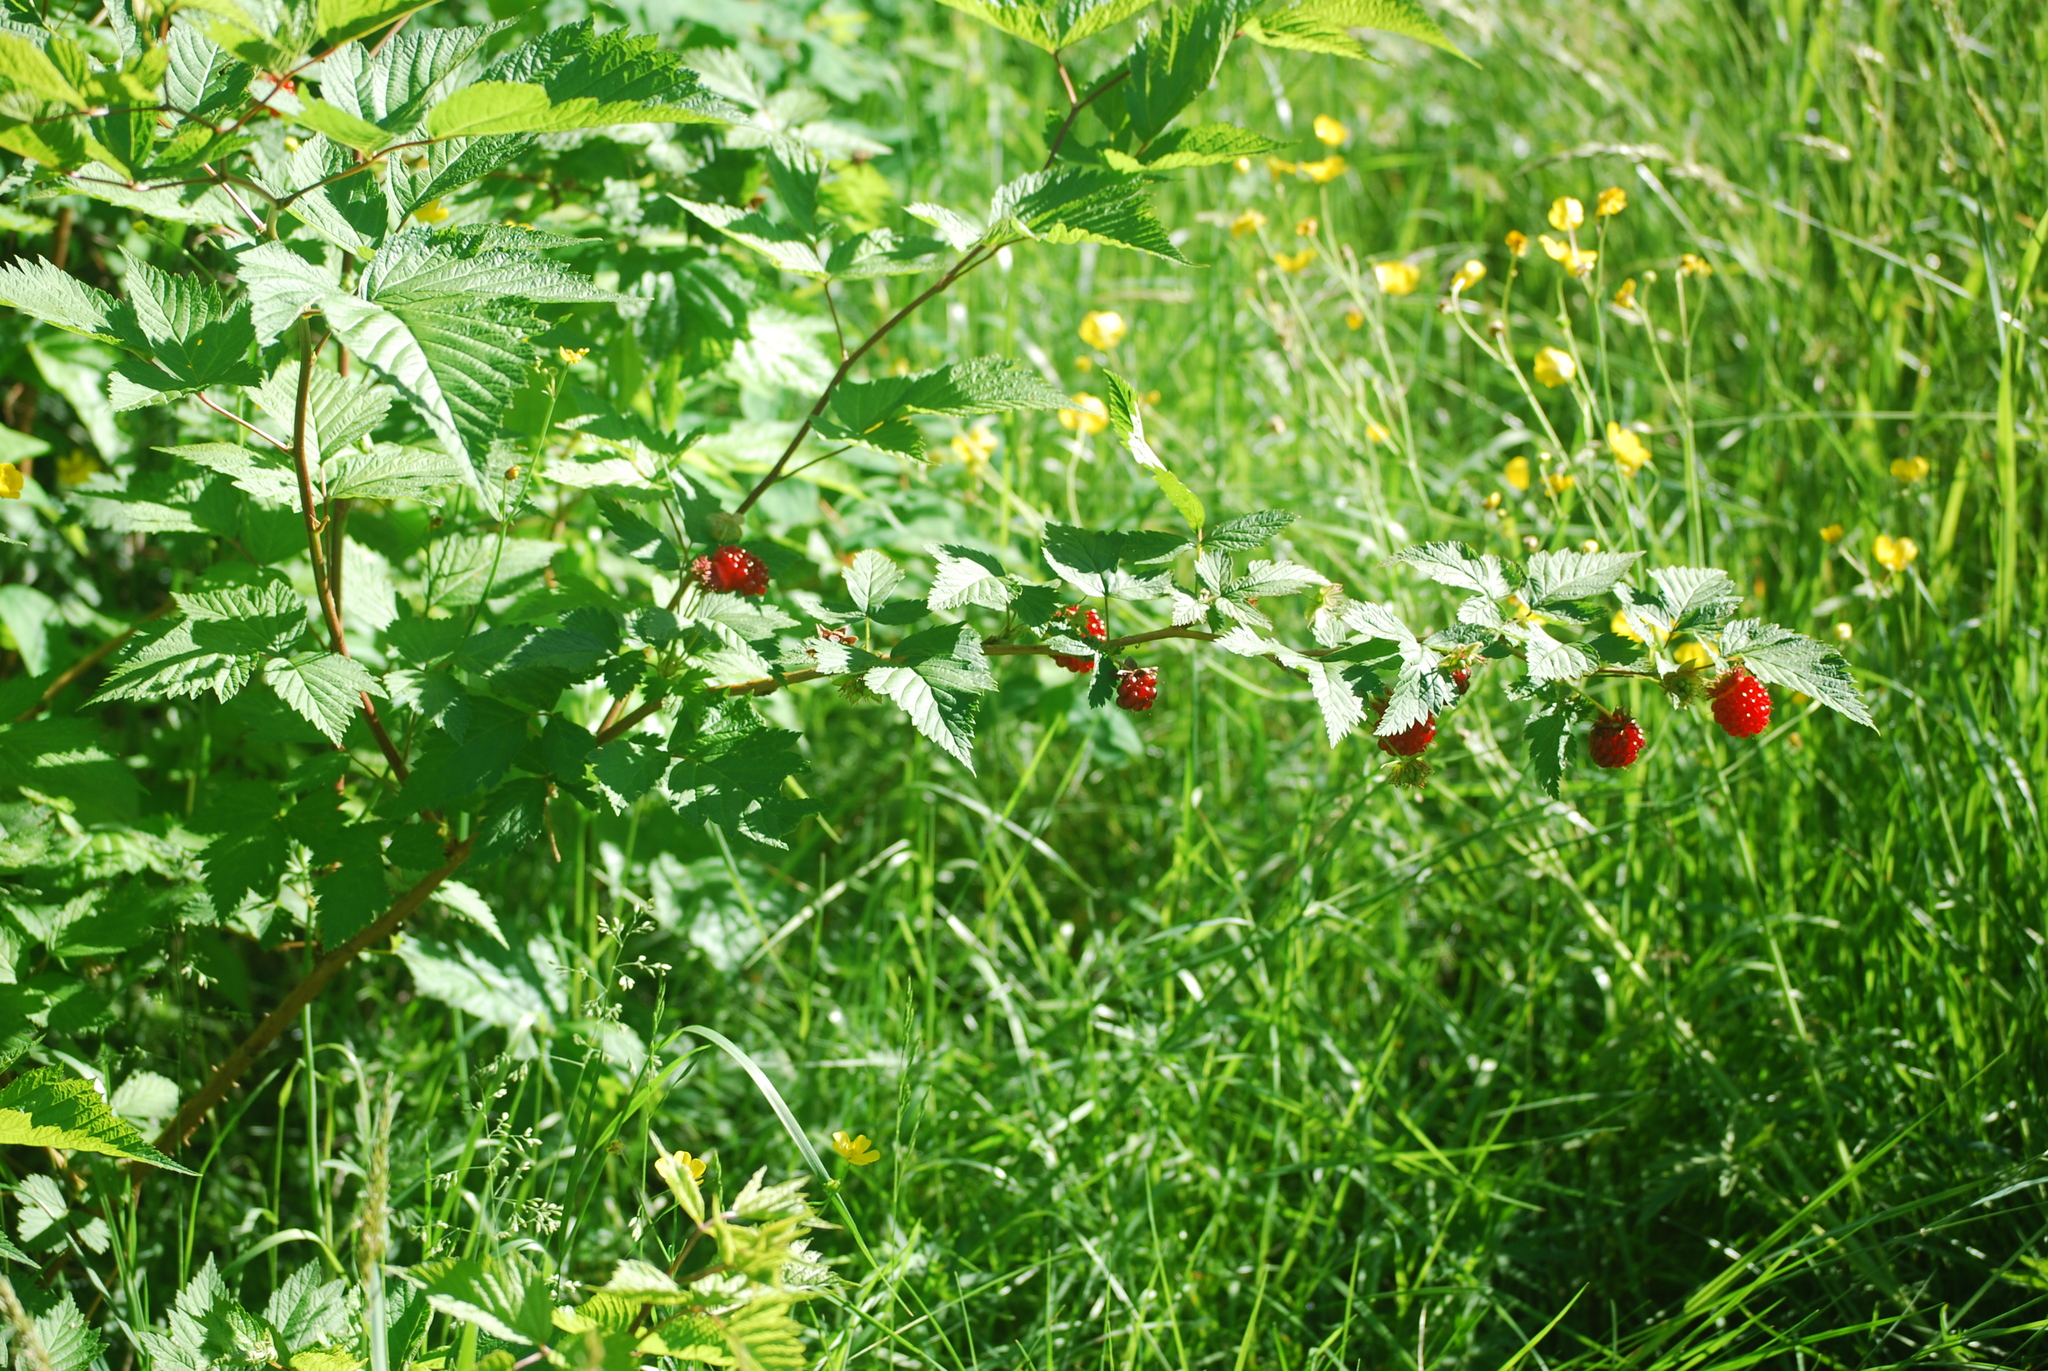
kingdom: Plantae
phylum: Tracheophyta
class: Magnoliopsida
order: Rosales
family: Rosaceae
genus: Rubus
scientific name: Rubus spectabilis
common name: Salmonberry
